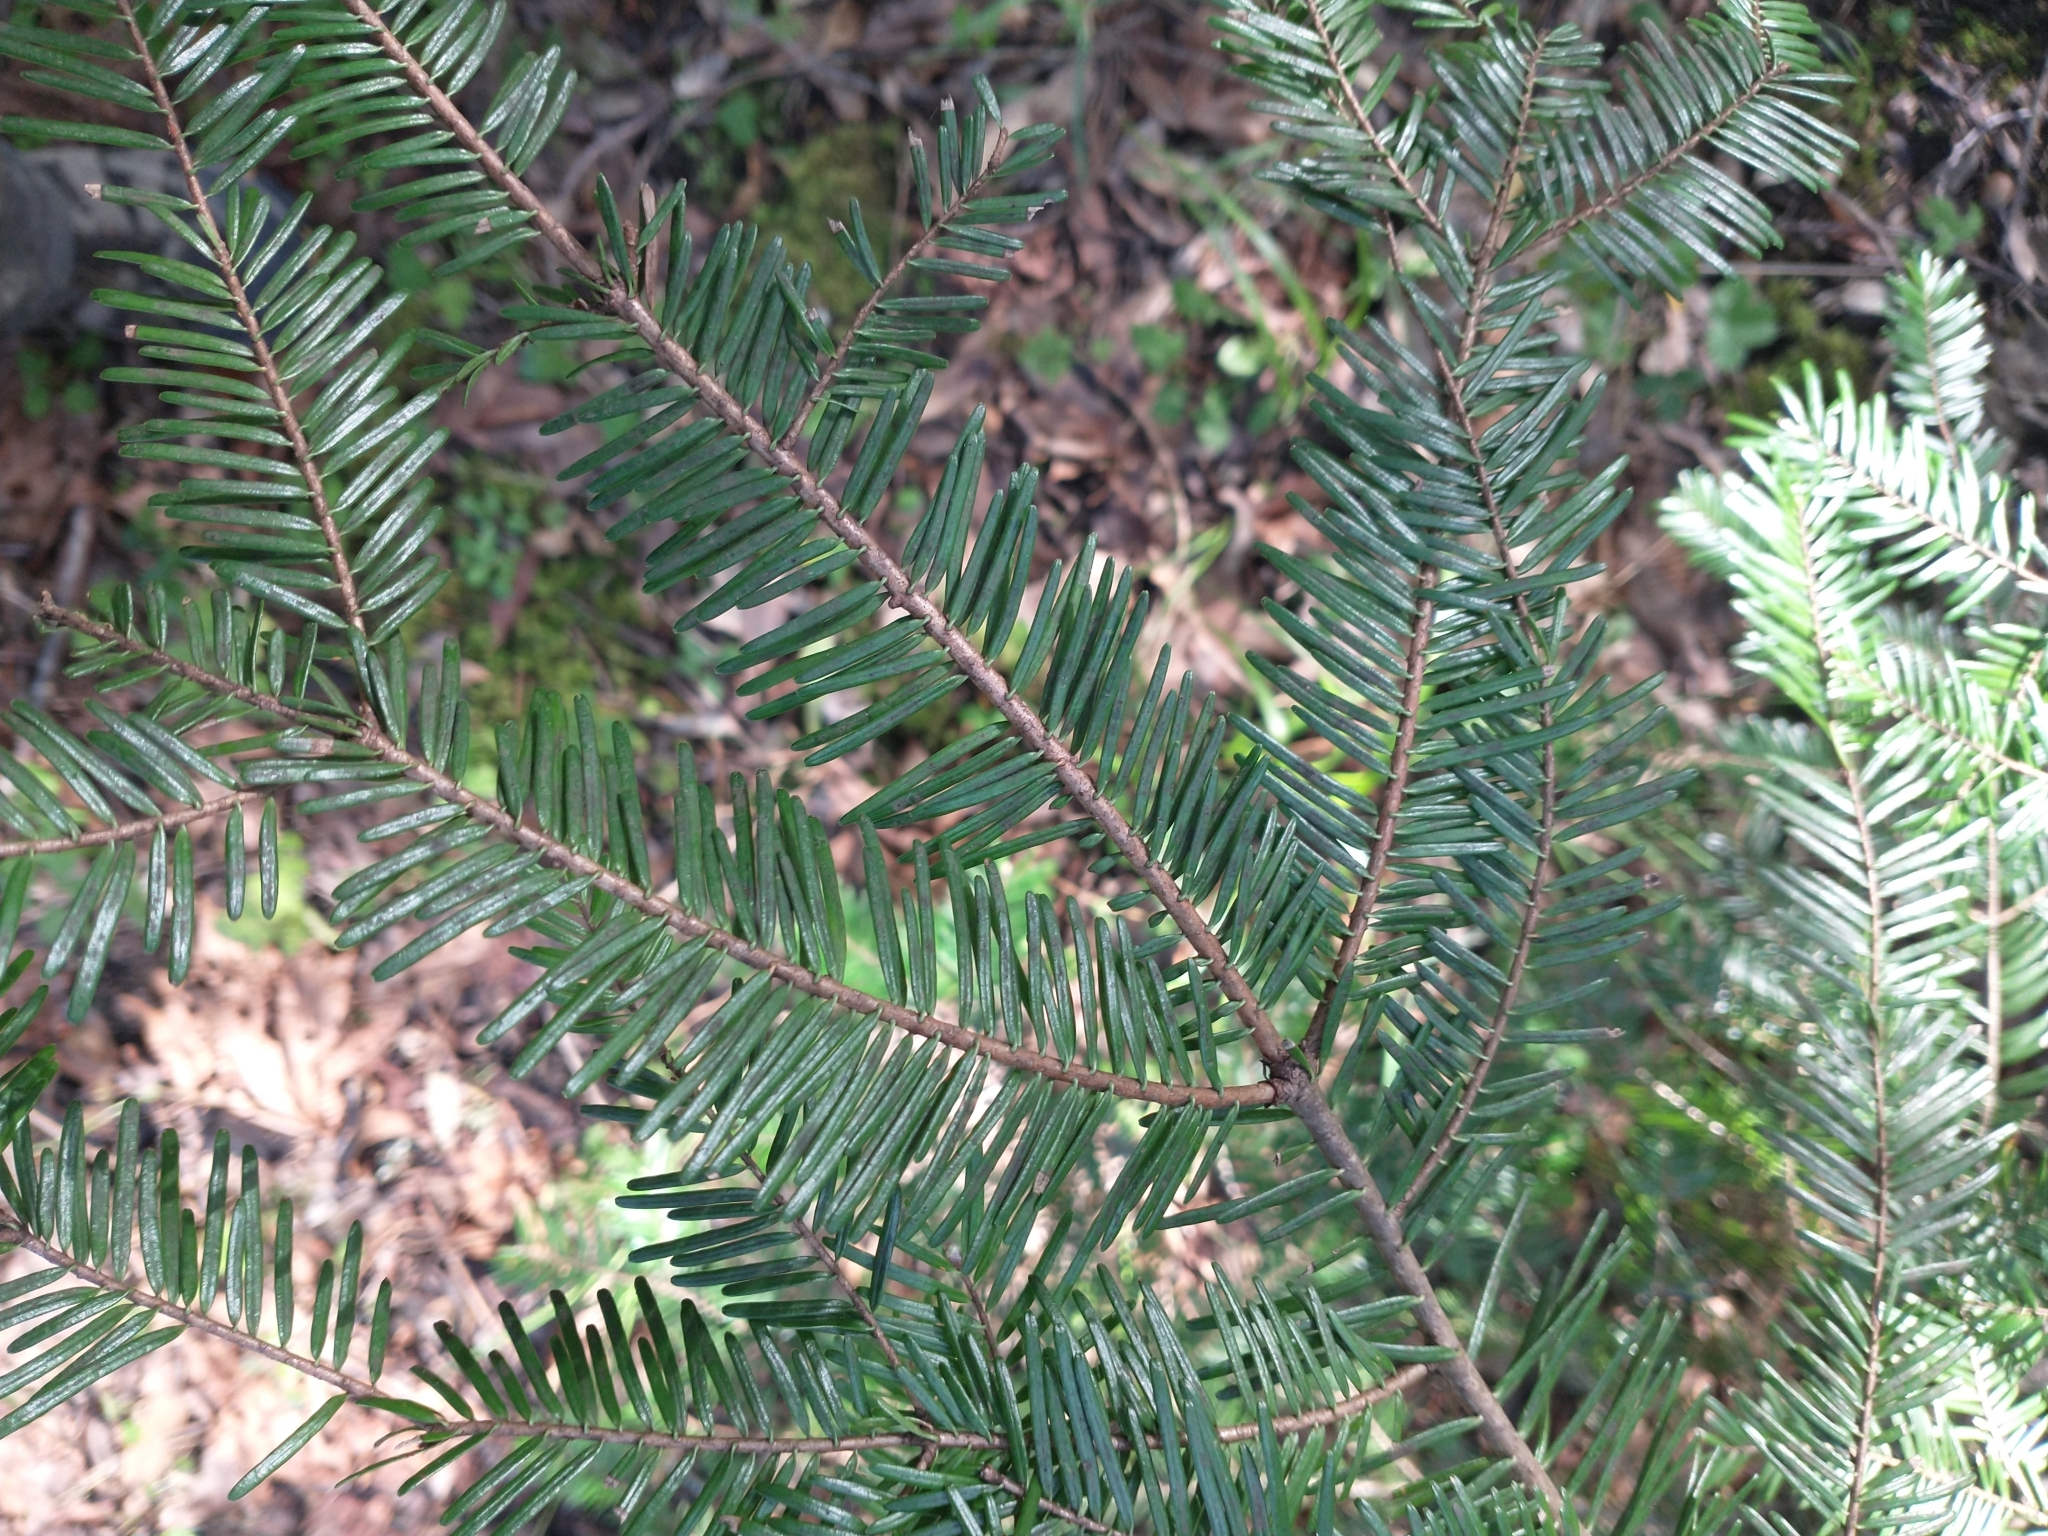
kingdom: Plantae
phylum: Tracheophyta
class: Pinopsida
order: Pinales
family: Pinaceae
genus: Abies
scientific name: Abies grandis
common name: Giant fir
